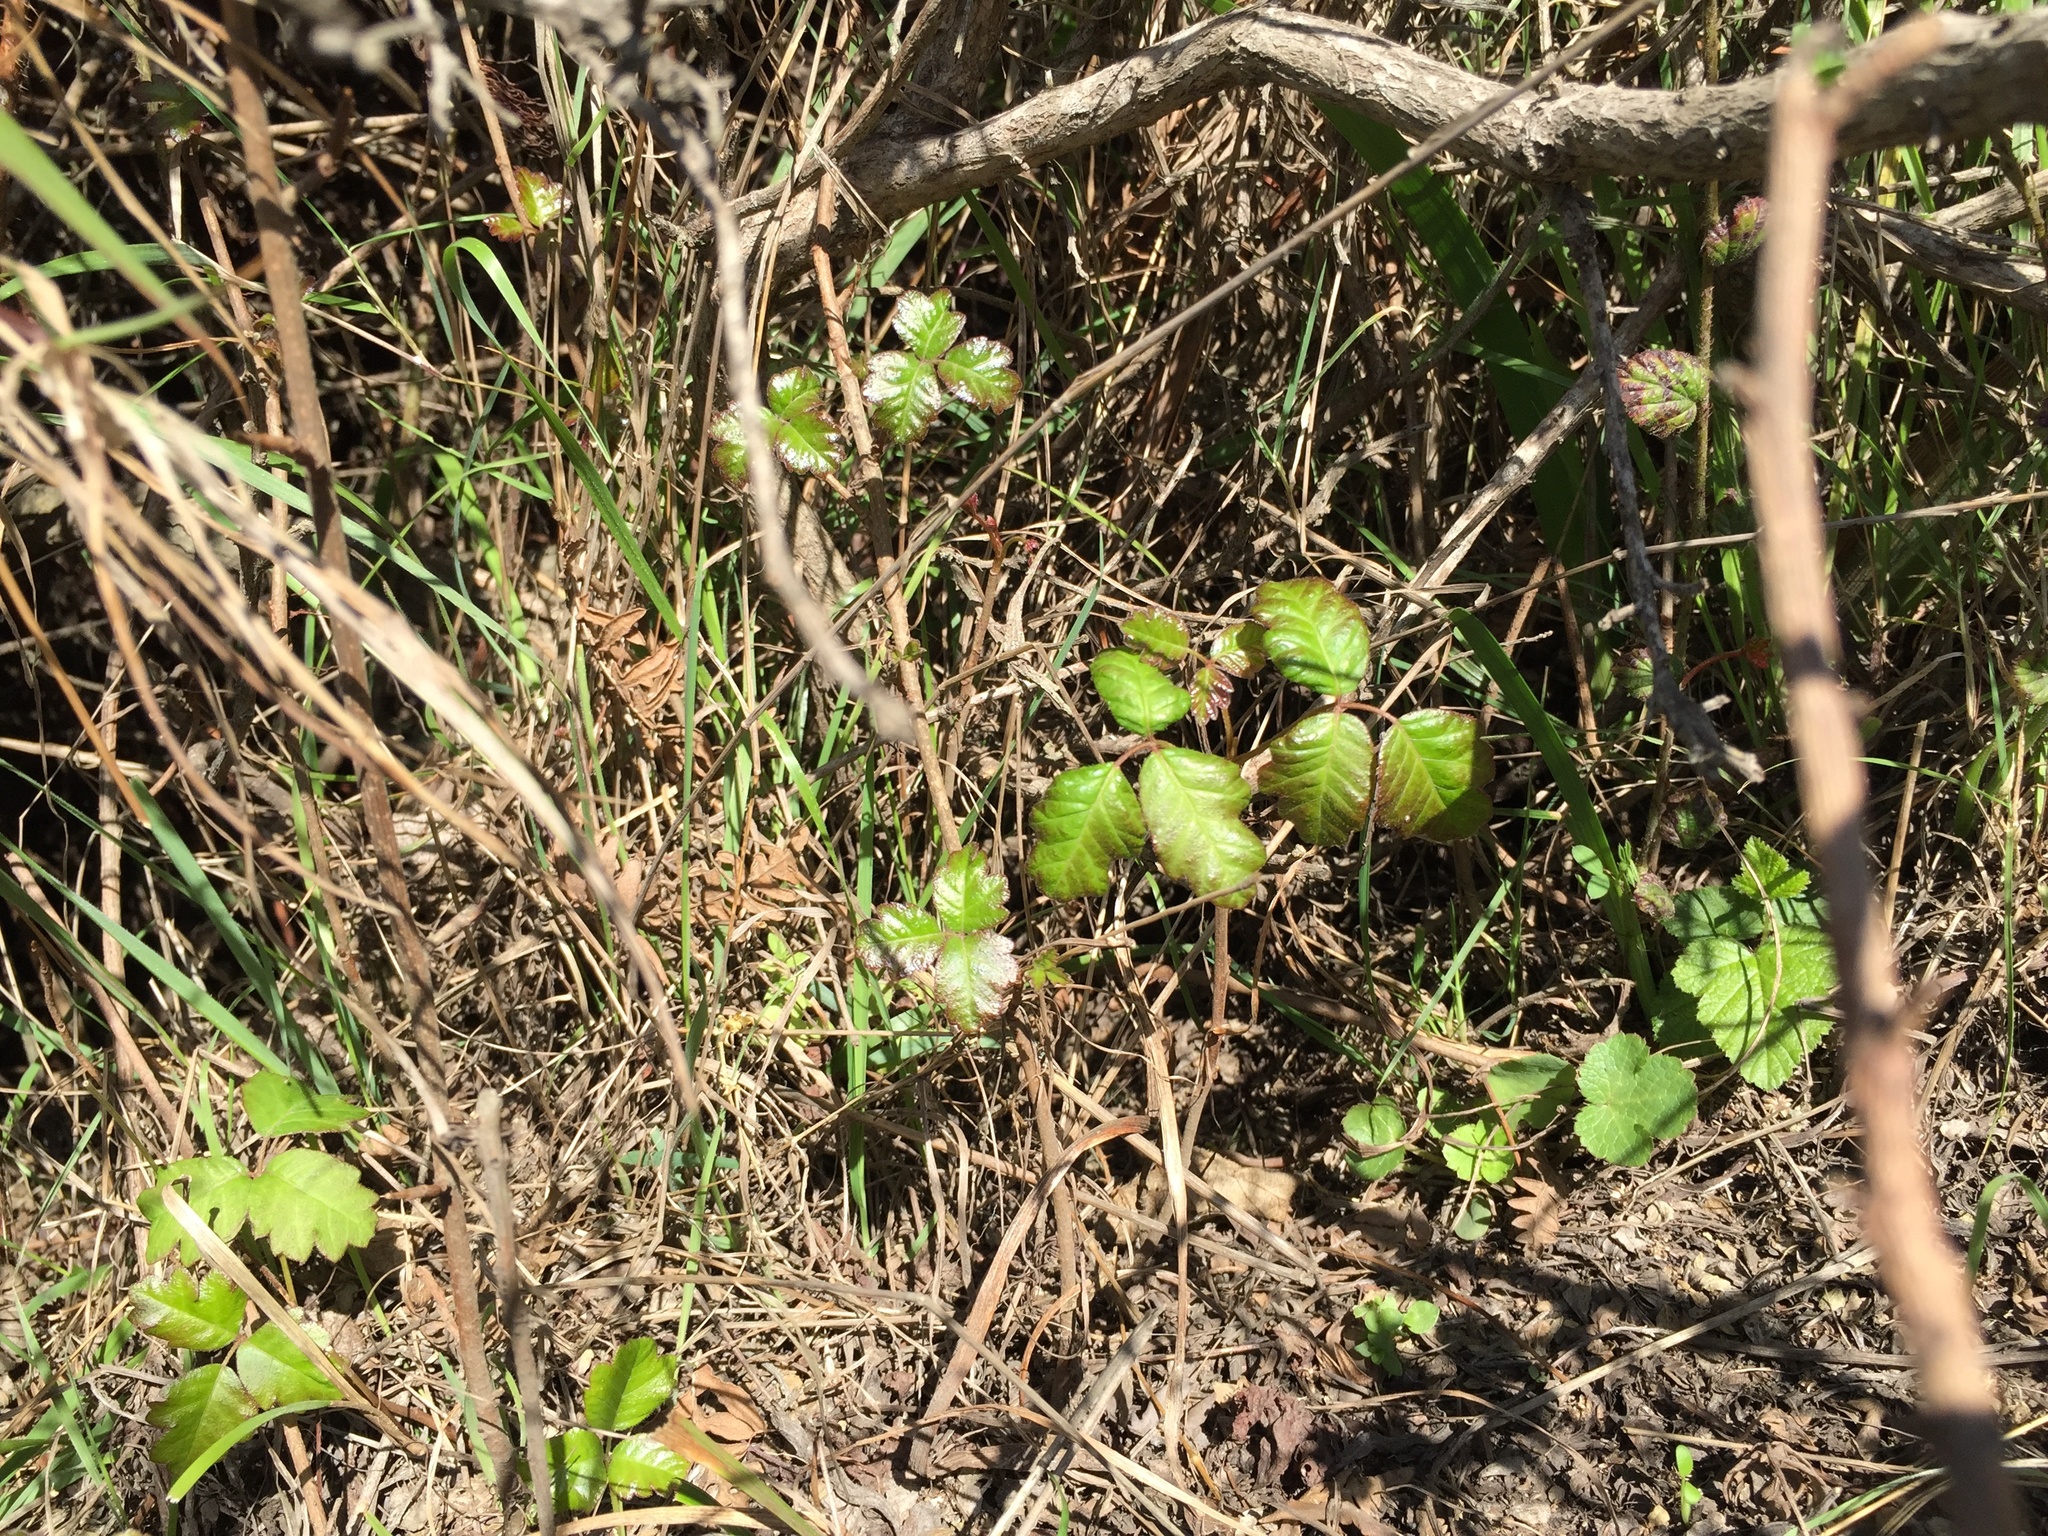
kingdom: Plantae
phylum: Tracheophyta
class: Magnoliopsida
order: Sapindales
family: Anacardiaceae
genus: Toxicodendron
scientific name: Toxicodendron diversilobum
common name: Pacific poison-oak
